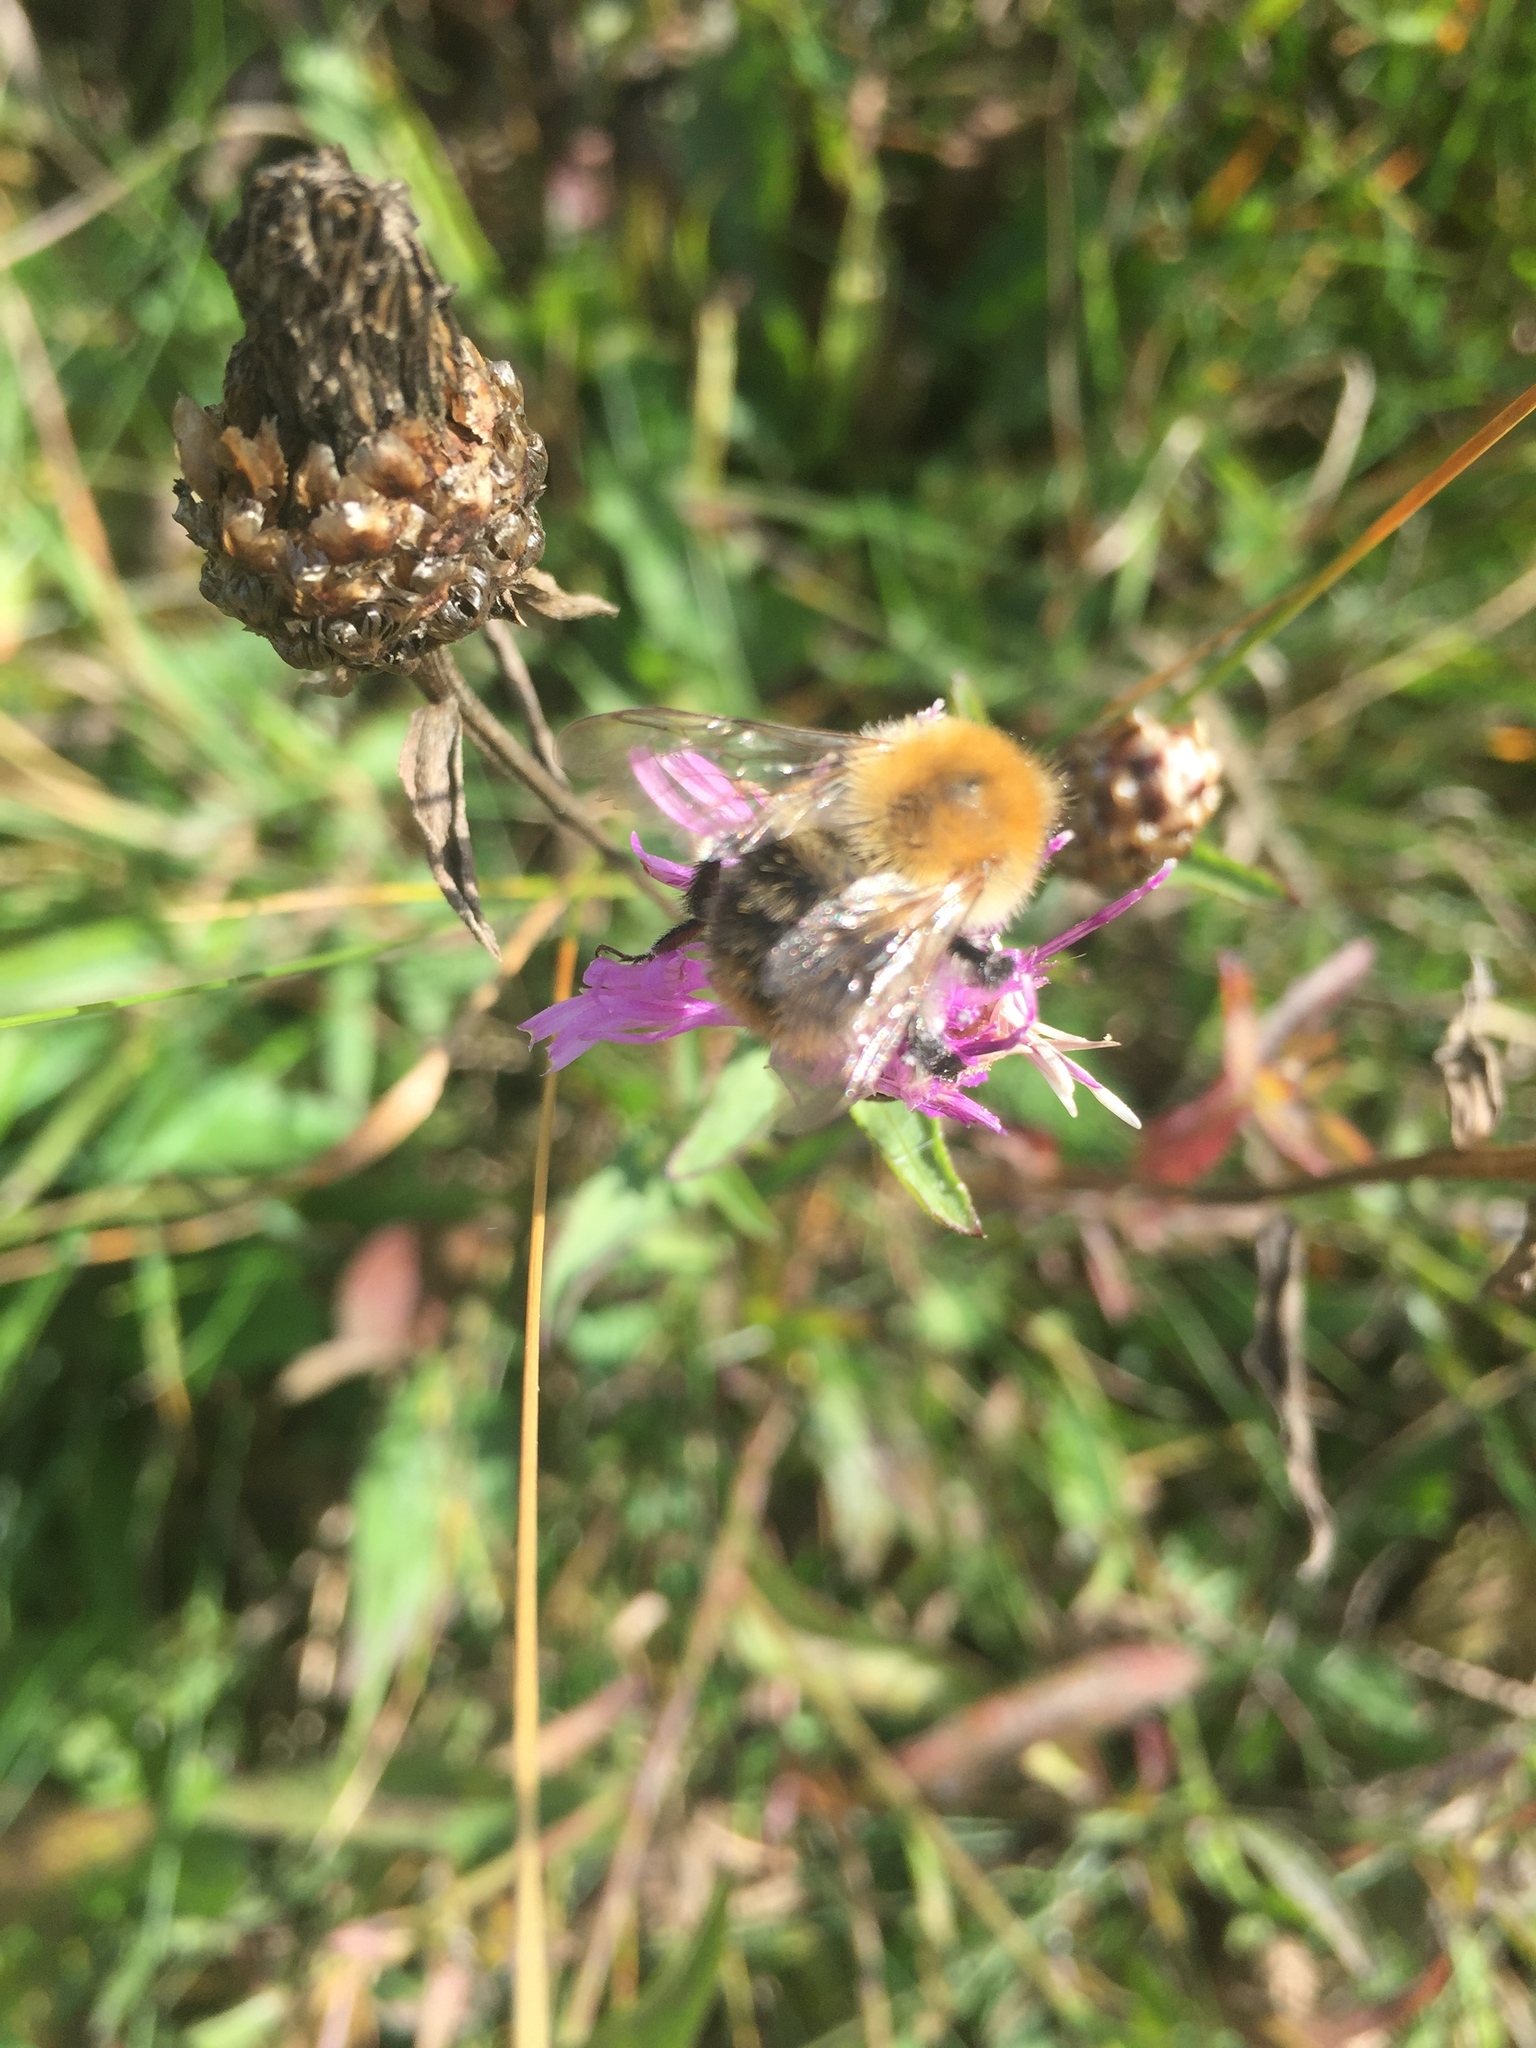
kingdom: Animalia
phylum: Arthropoda
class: Insecta
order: Hymenoptera
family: Apidae
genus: Bombus
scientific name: Bombus pascuorum
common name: Common carder bee
